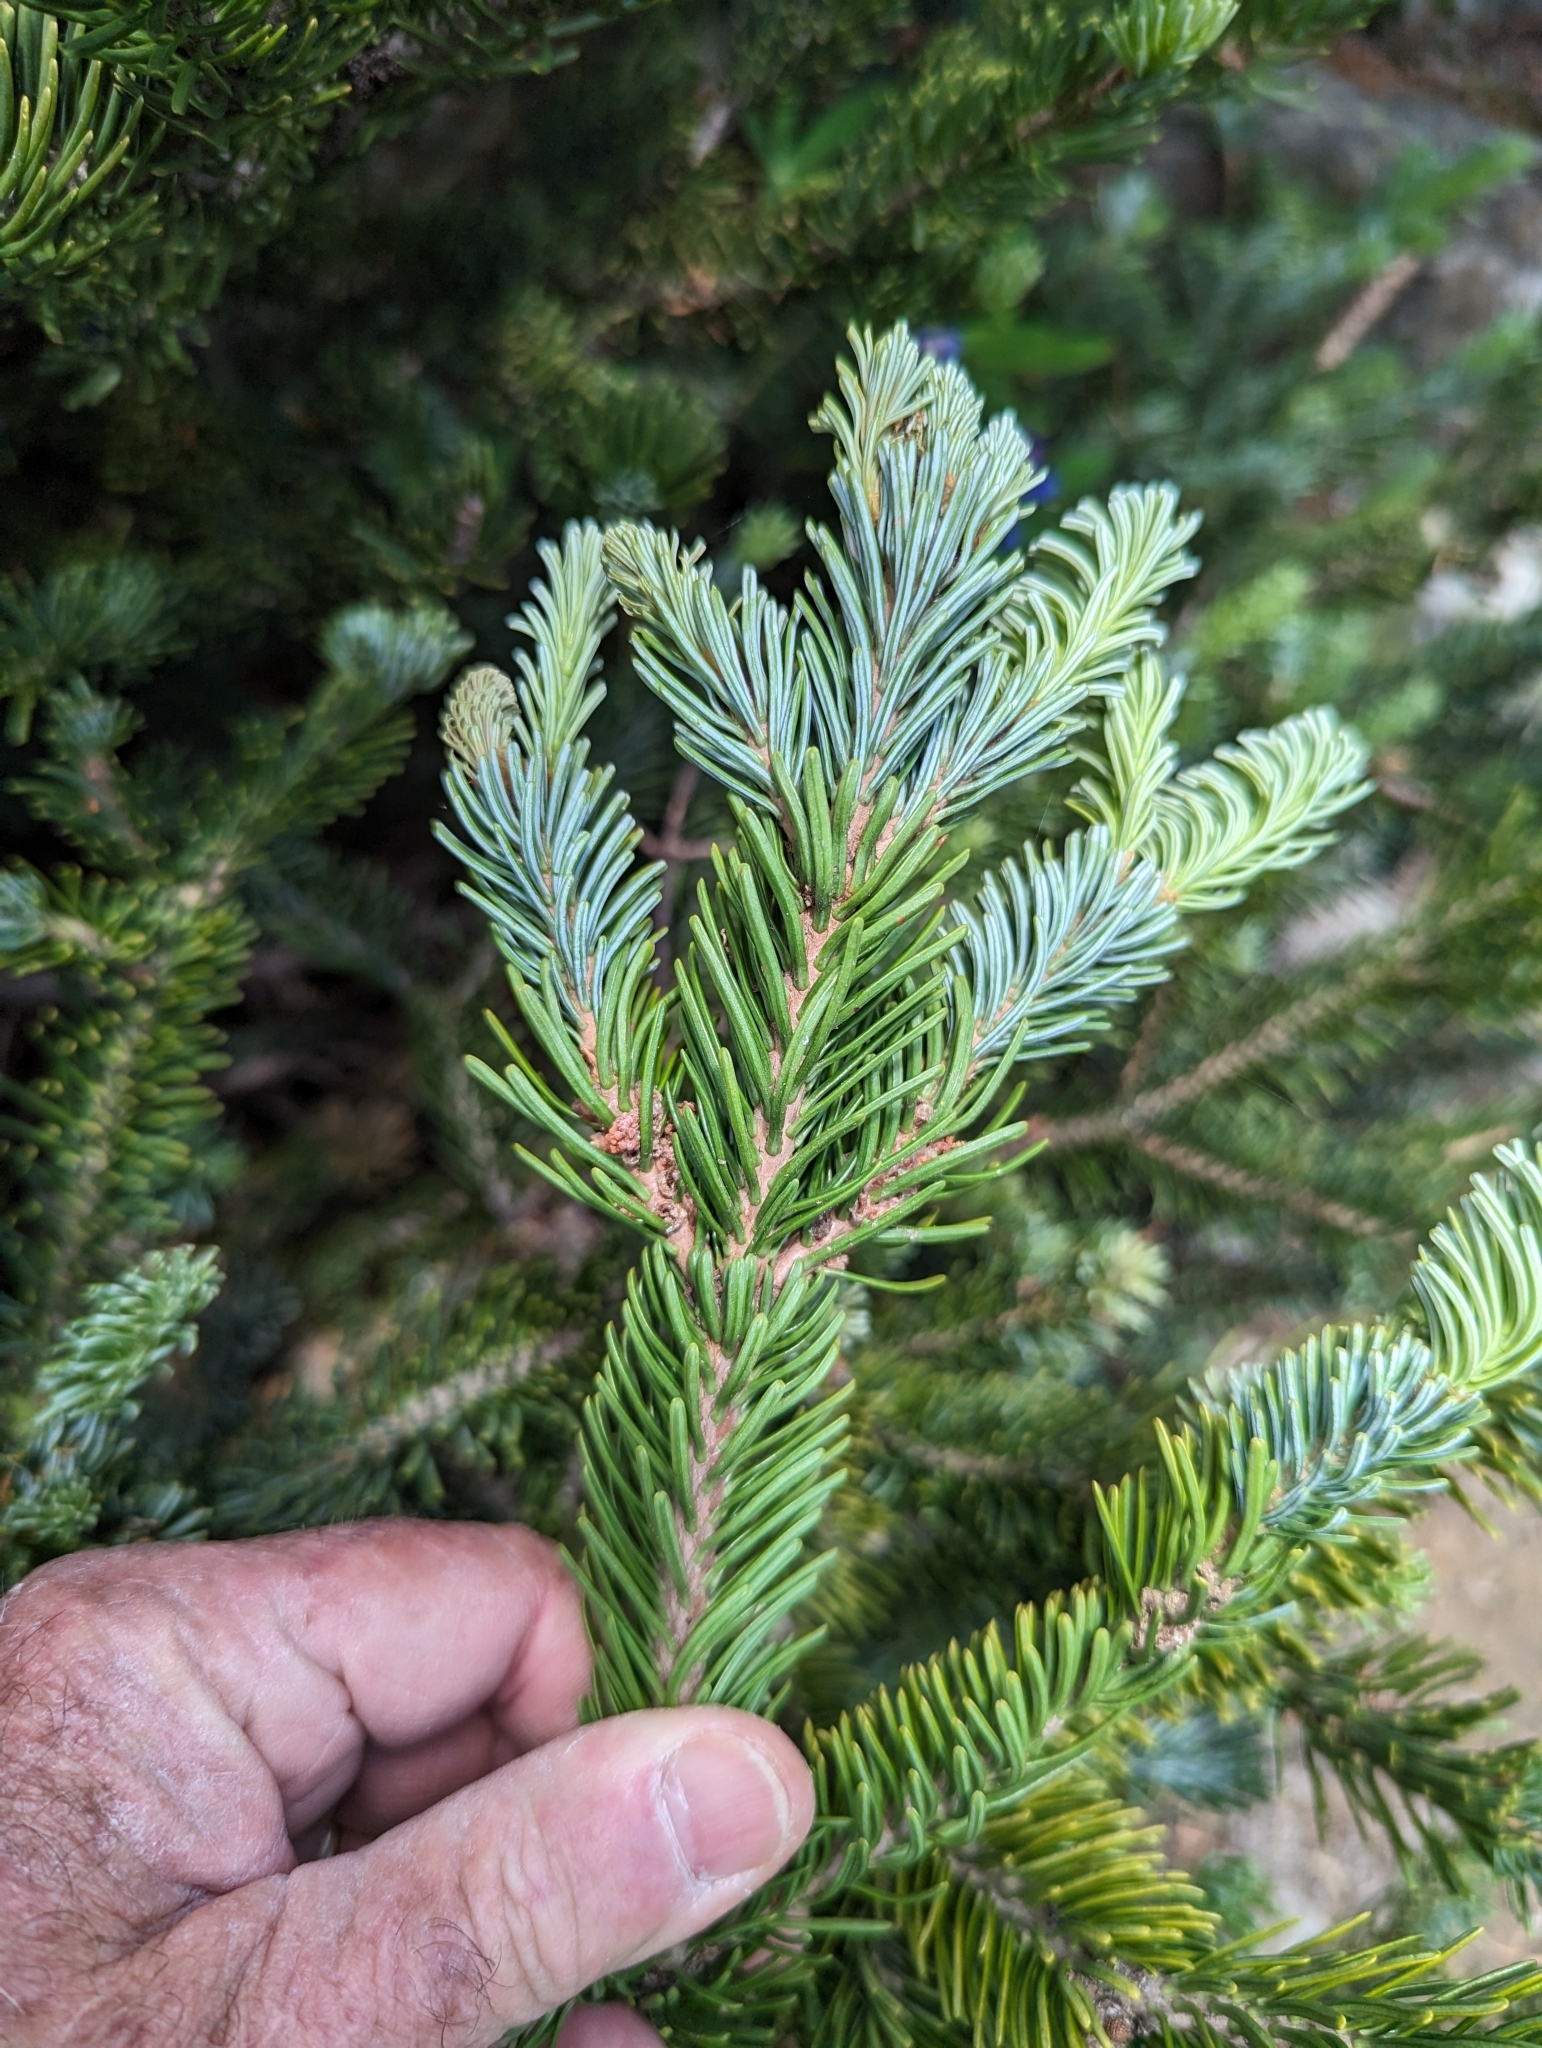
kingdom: Plantae
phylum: Tracheophyta
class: Pinopsida
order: Pinales
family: Pinaceae
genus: Abies
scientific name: Abies lasiocarpa
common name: Subalpine fir
